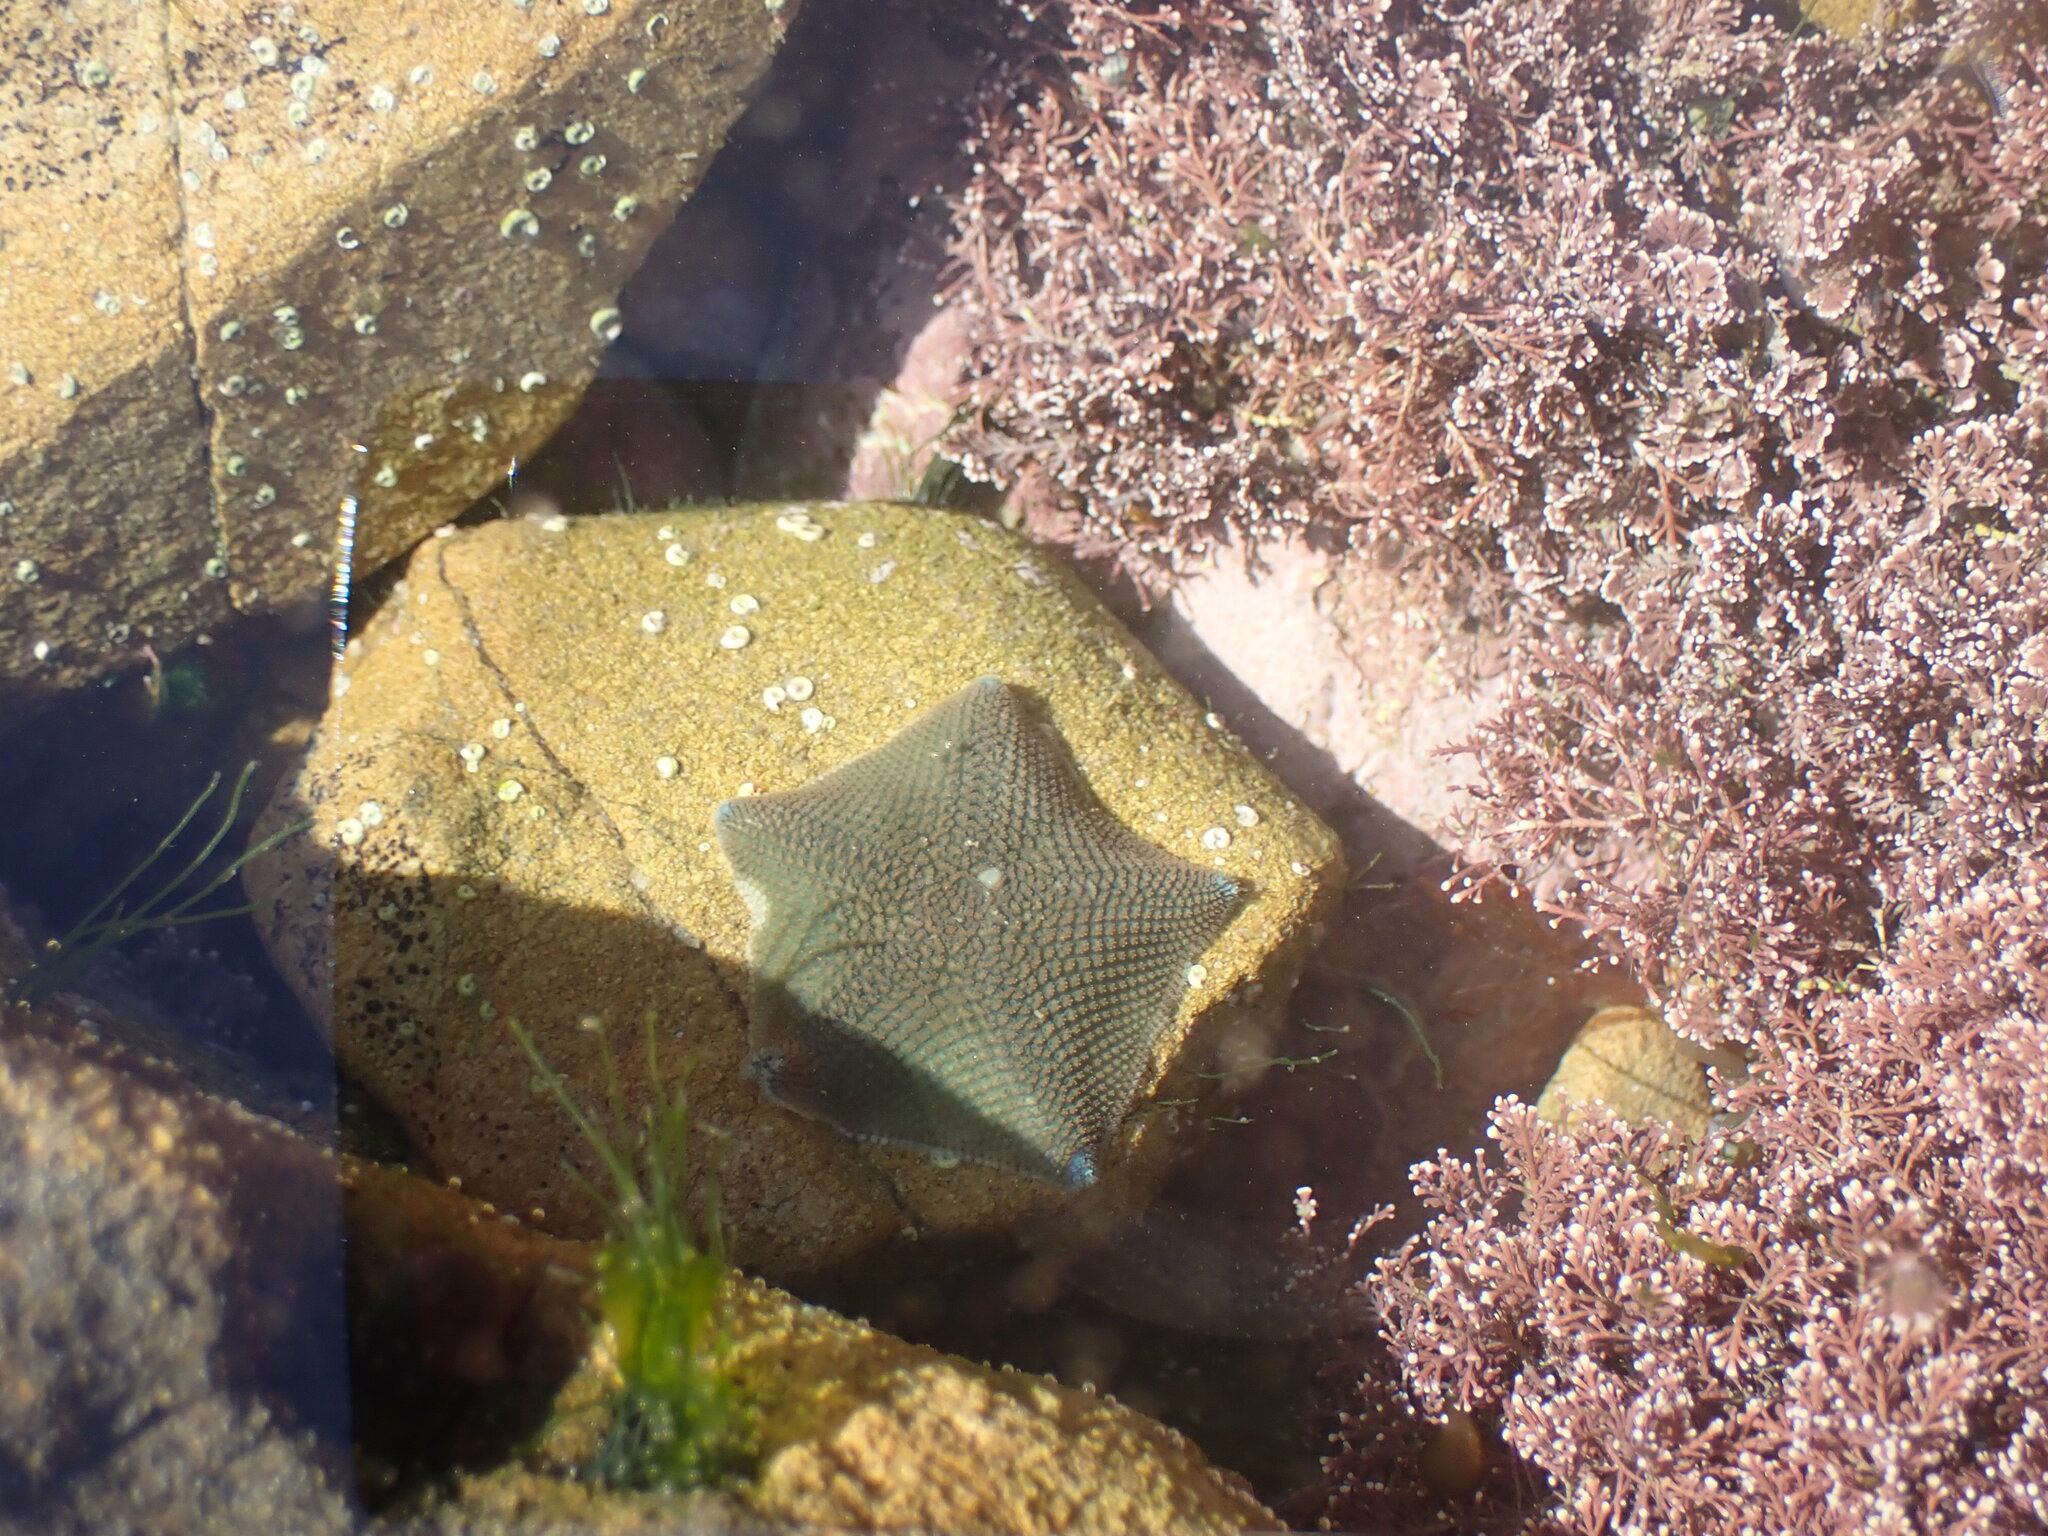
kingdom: Animalia
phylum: Echinodermata
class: Asteroidea
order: Valvatida
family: Asterinidae
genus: Patiriella
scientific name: Patiriella regularis
